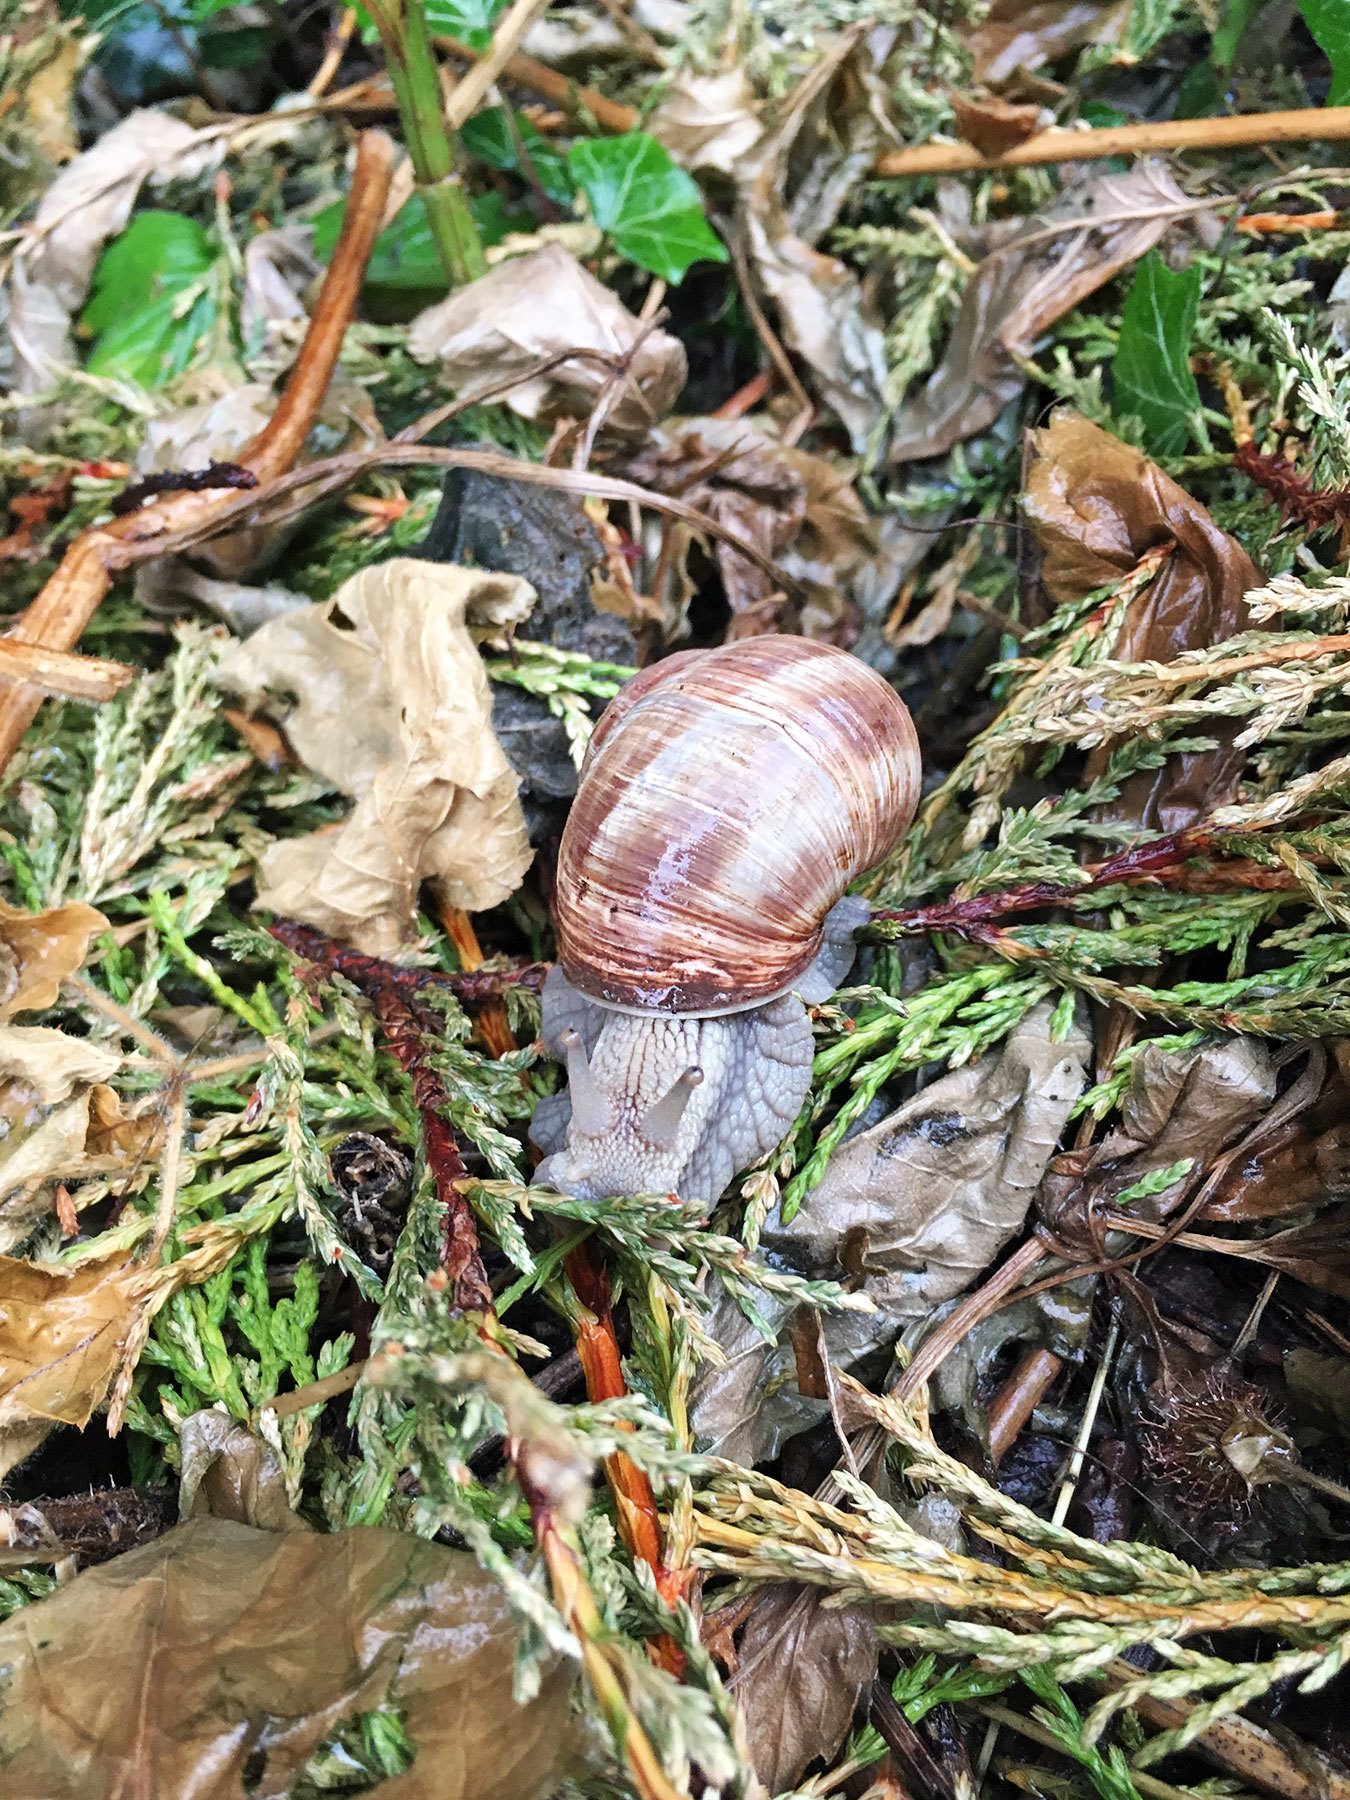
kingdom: Animalia
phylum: Mollusca
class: Gastropoda
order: Stylommatophora
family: Helicidae
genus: Helix
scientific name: Helix pomatia
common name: Roman snail
